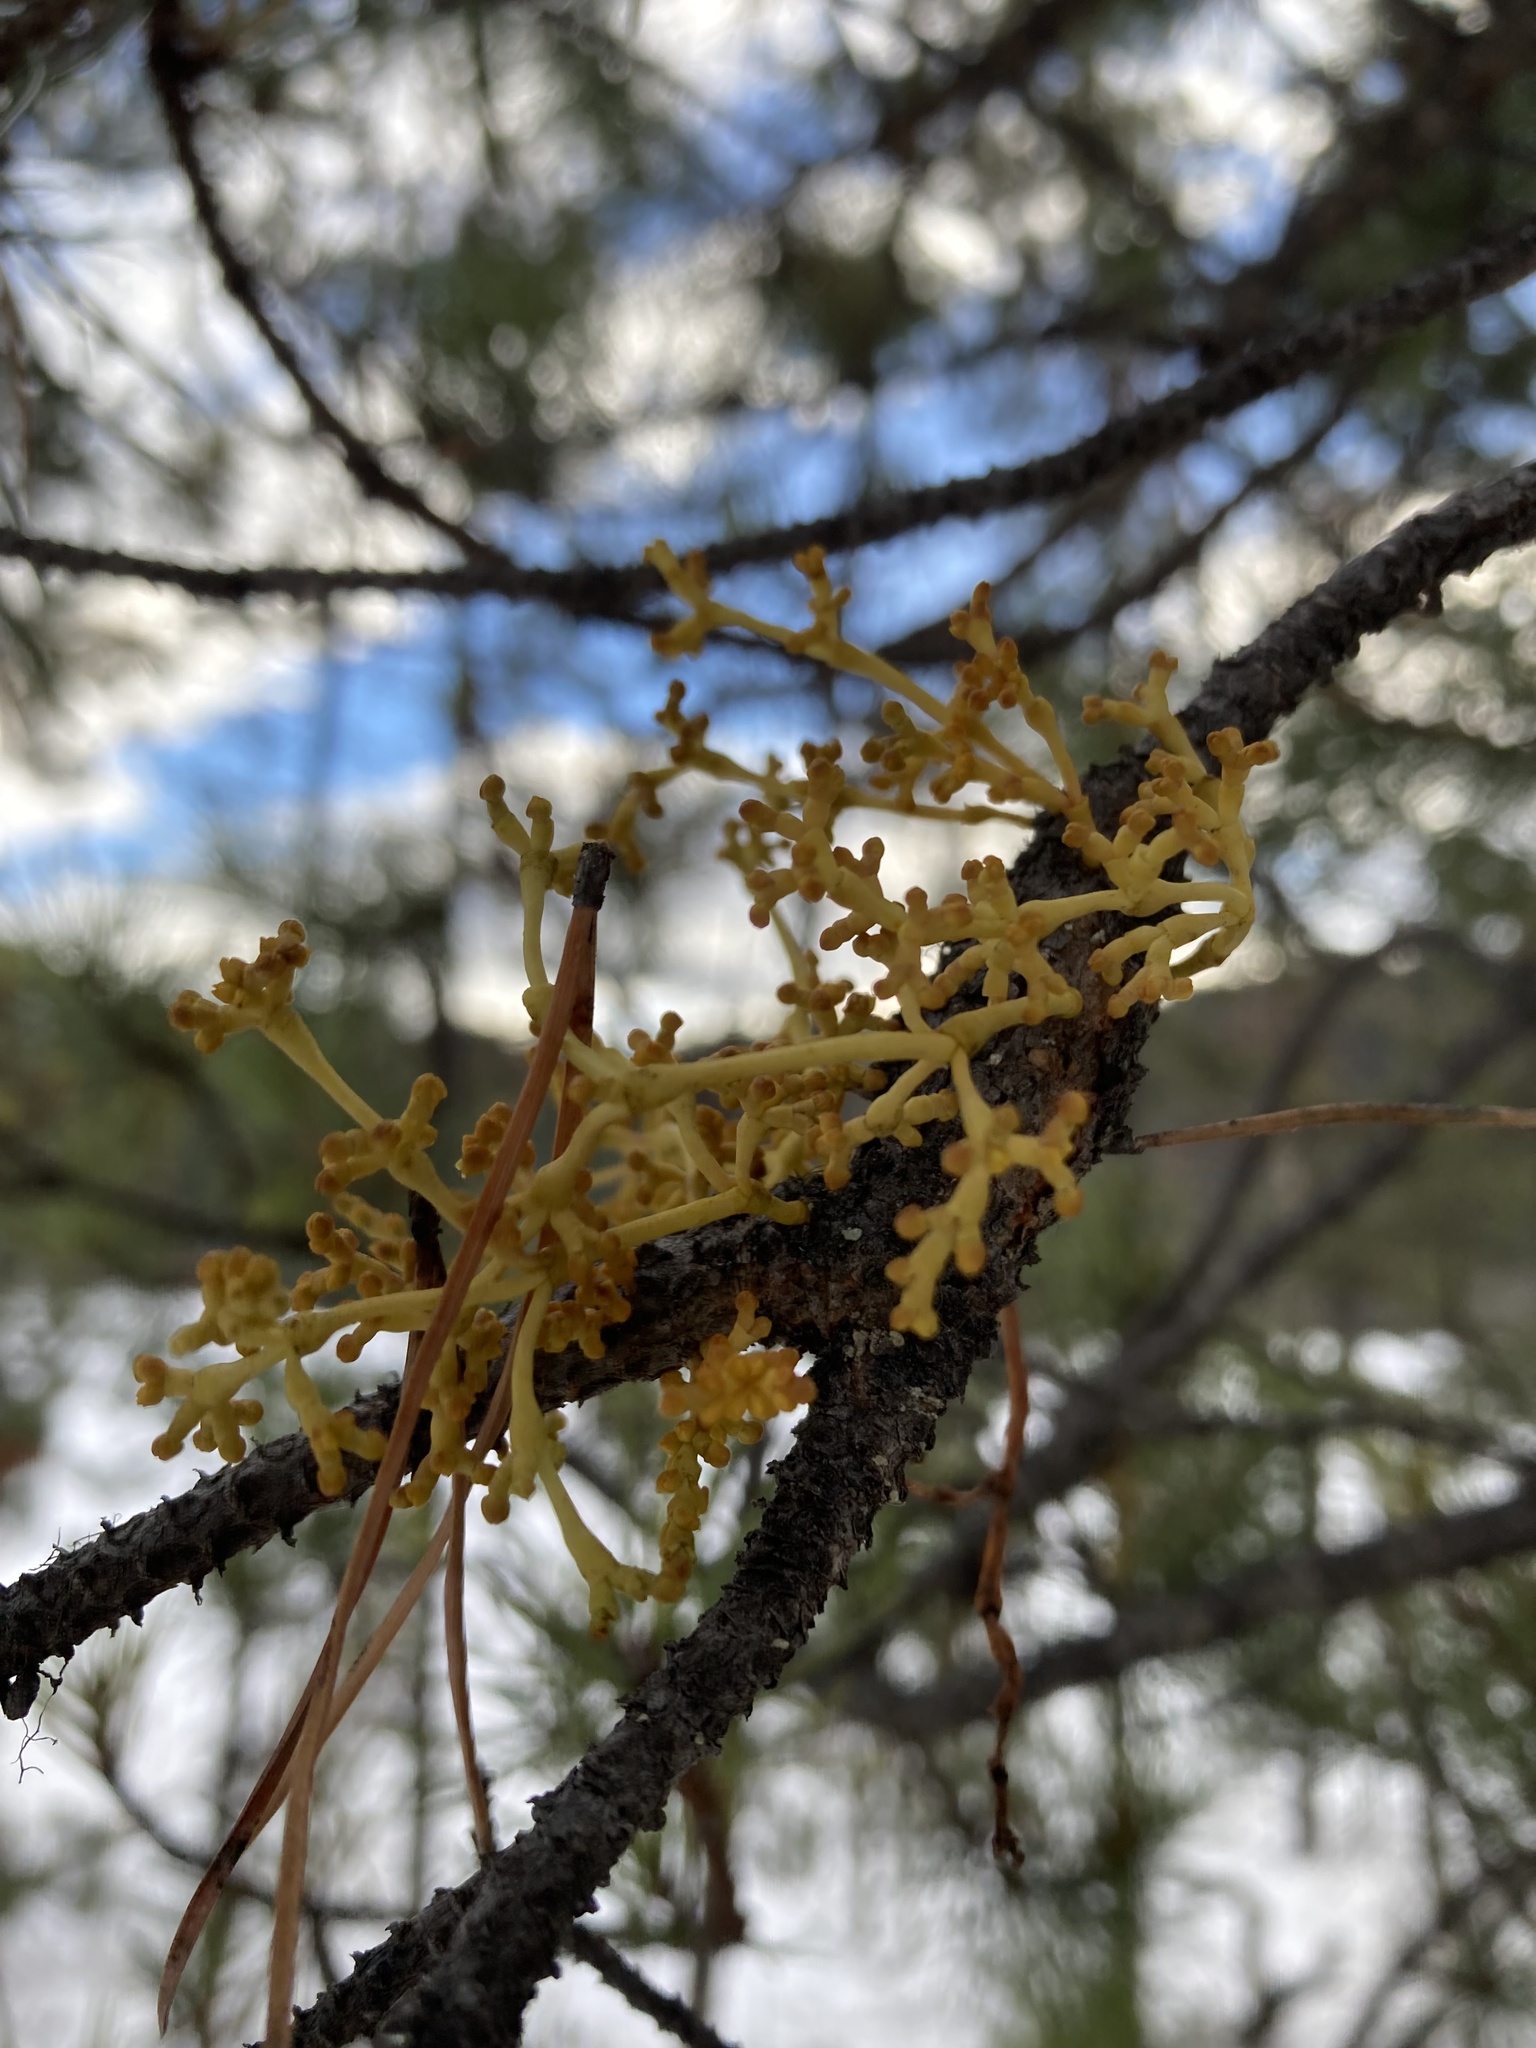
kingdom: Plantae
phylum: Tracheophyta
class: Magnoliopsida
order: Santalales
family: Viscaceae
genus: Arceuthobium
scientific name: Arceuthobium americanum
